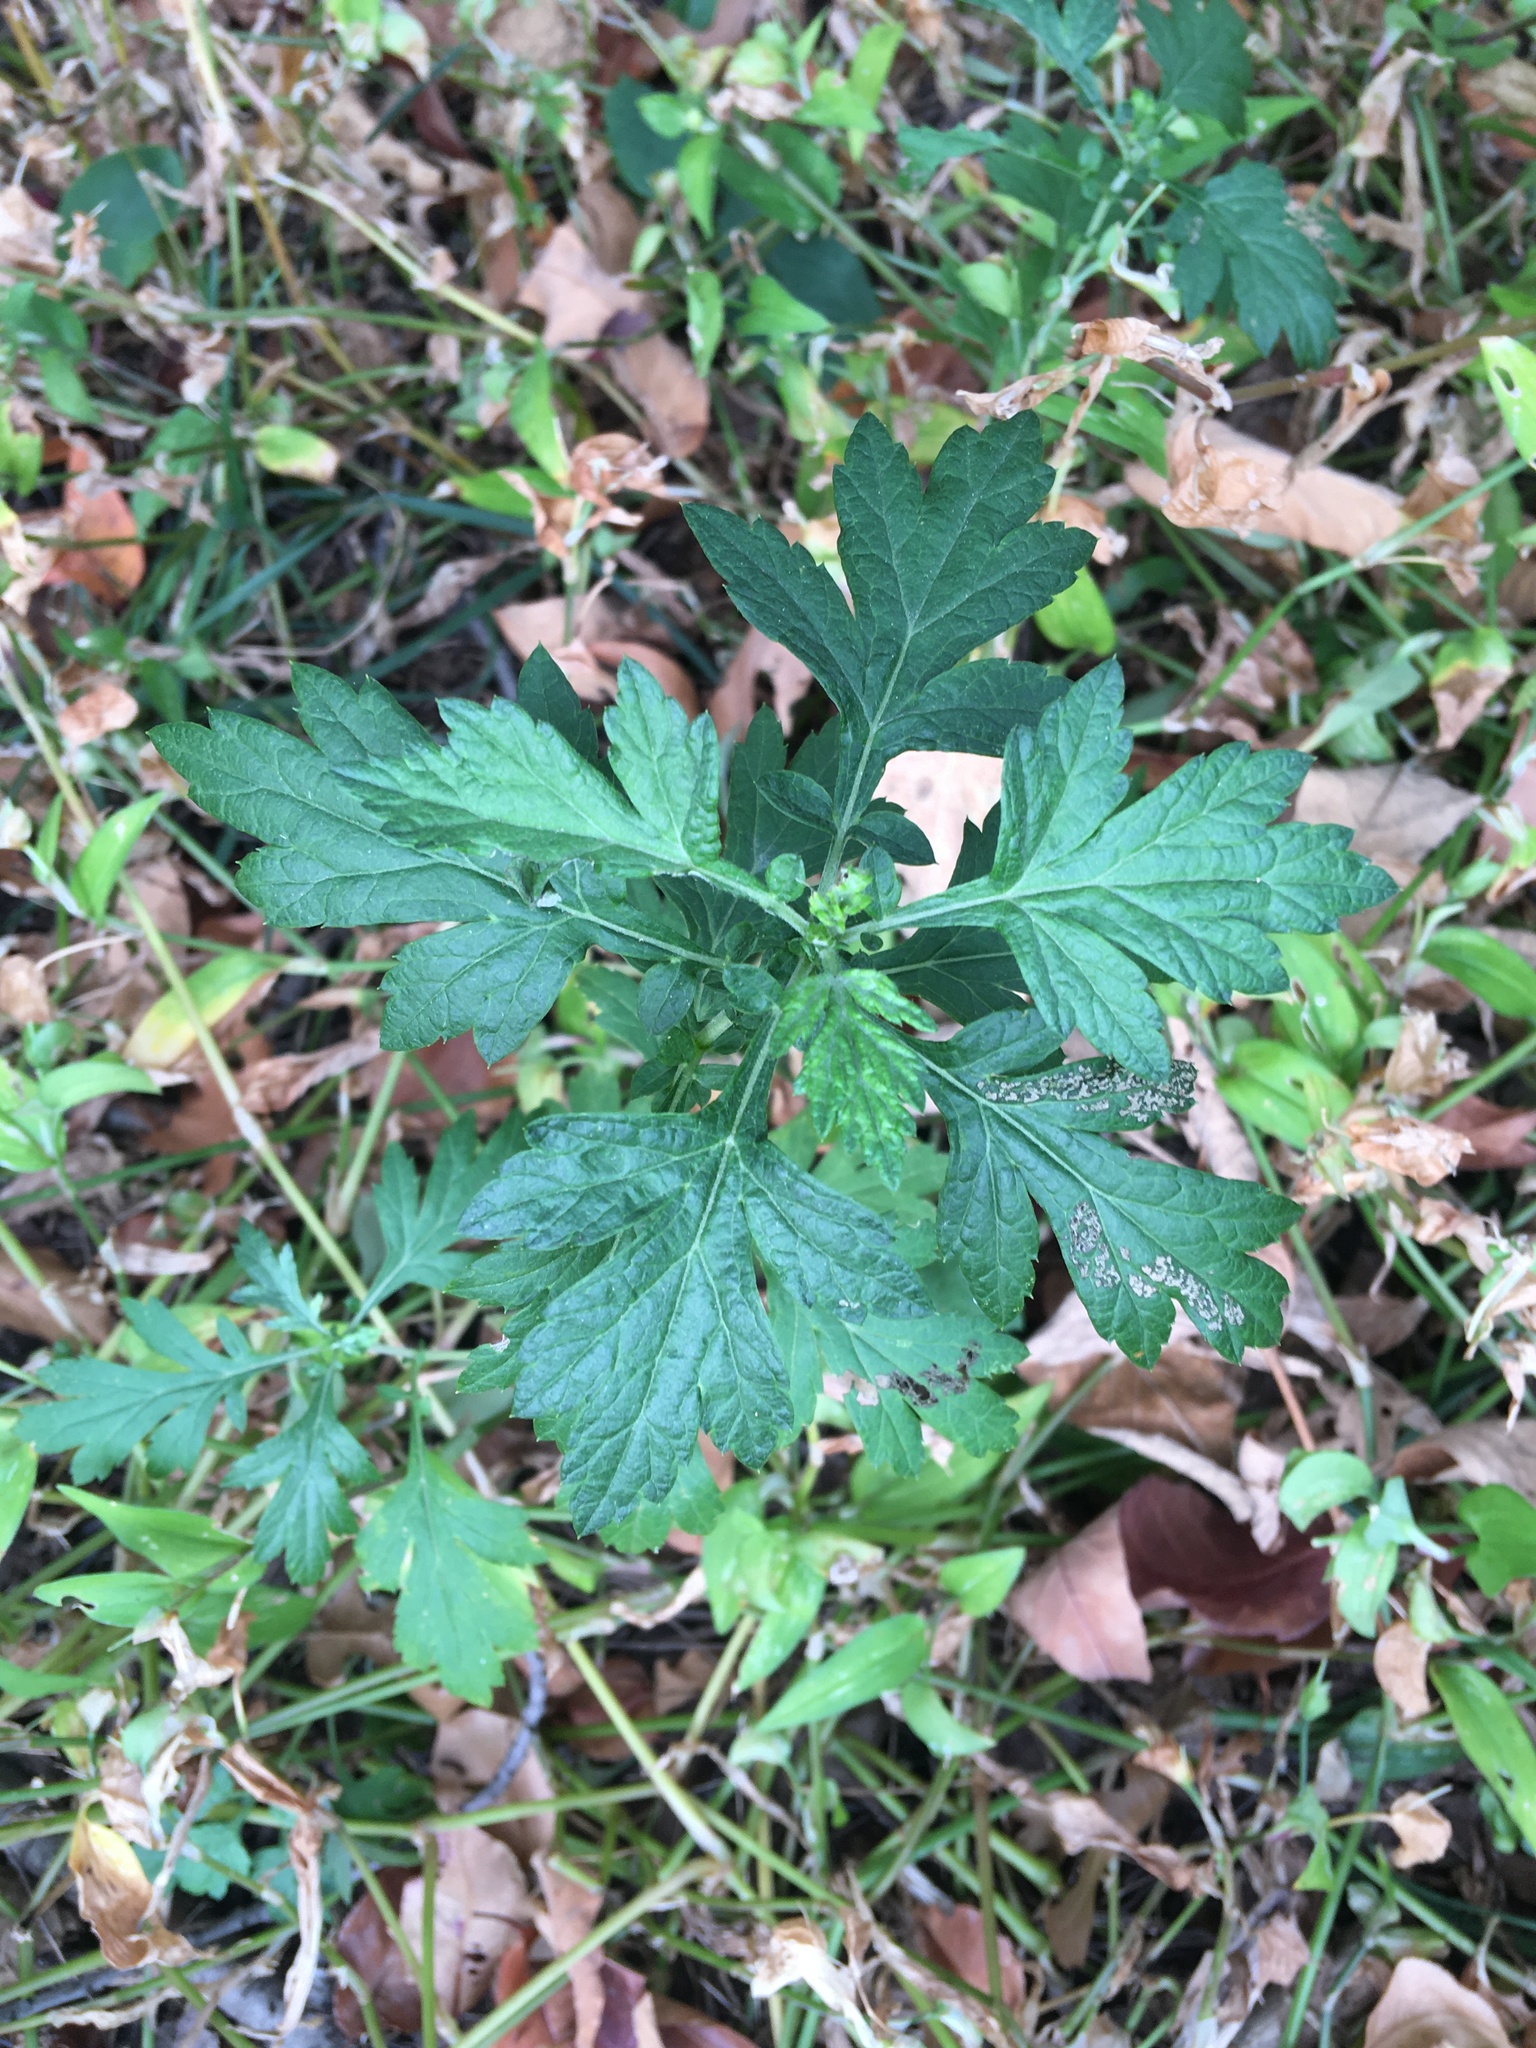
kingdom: Plantae
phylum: Tracheophyta
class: Magnoliopsida
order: Asterales
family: Asteraceae
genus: Artemisia
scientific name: Artemisia vulgaris
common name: Mugwort
